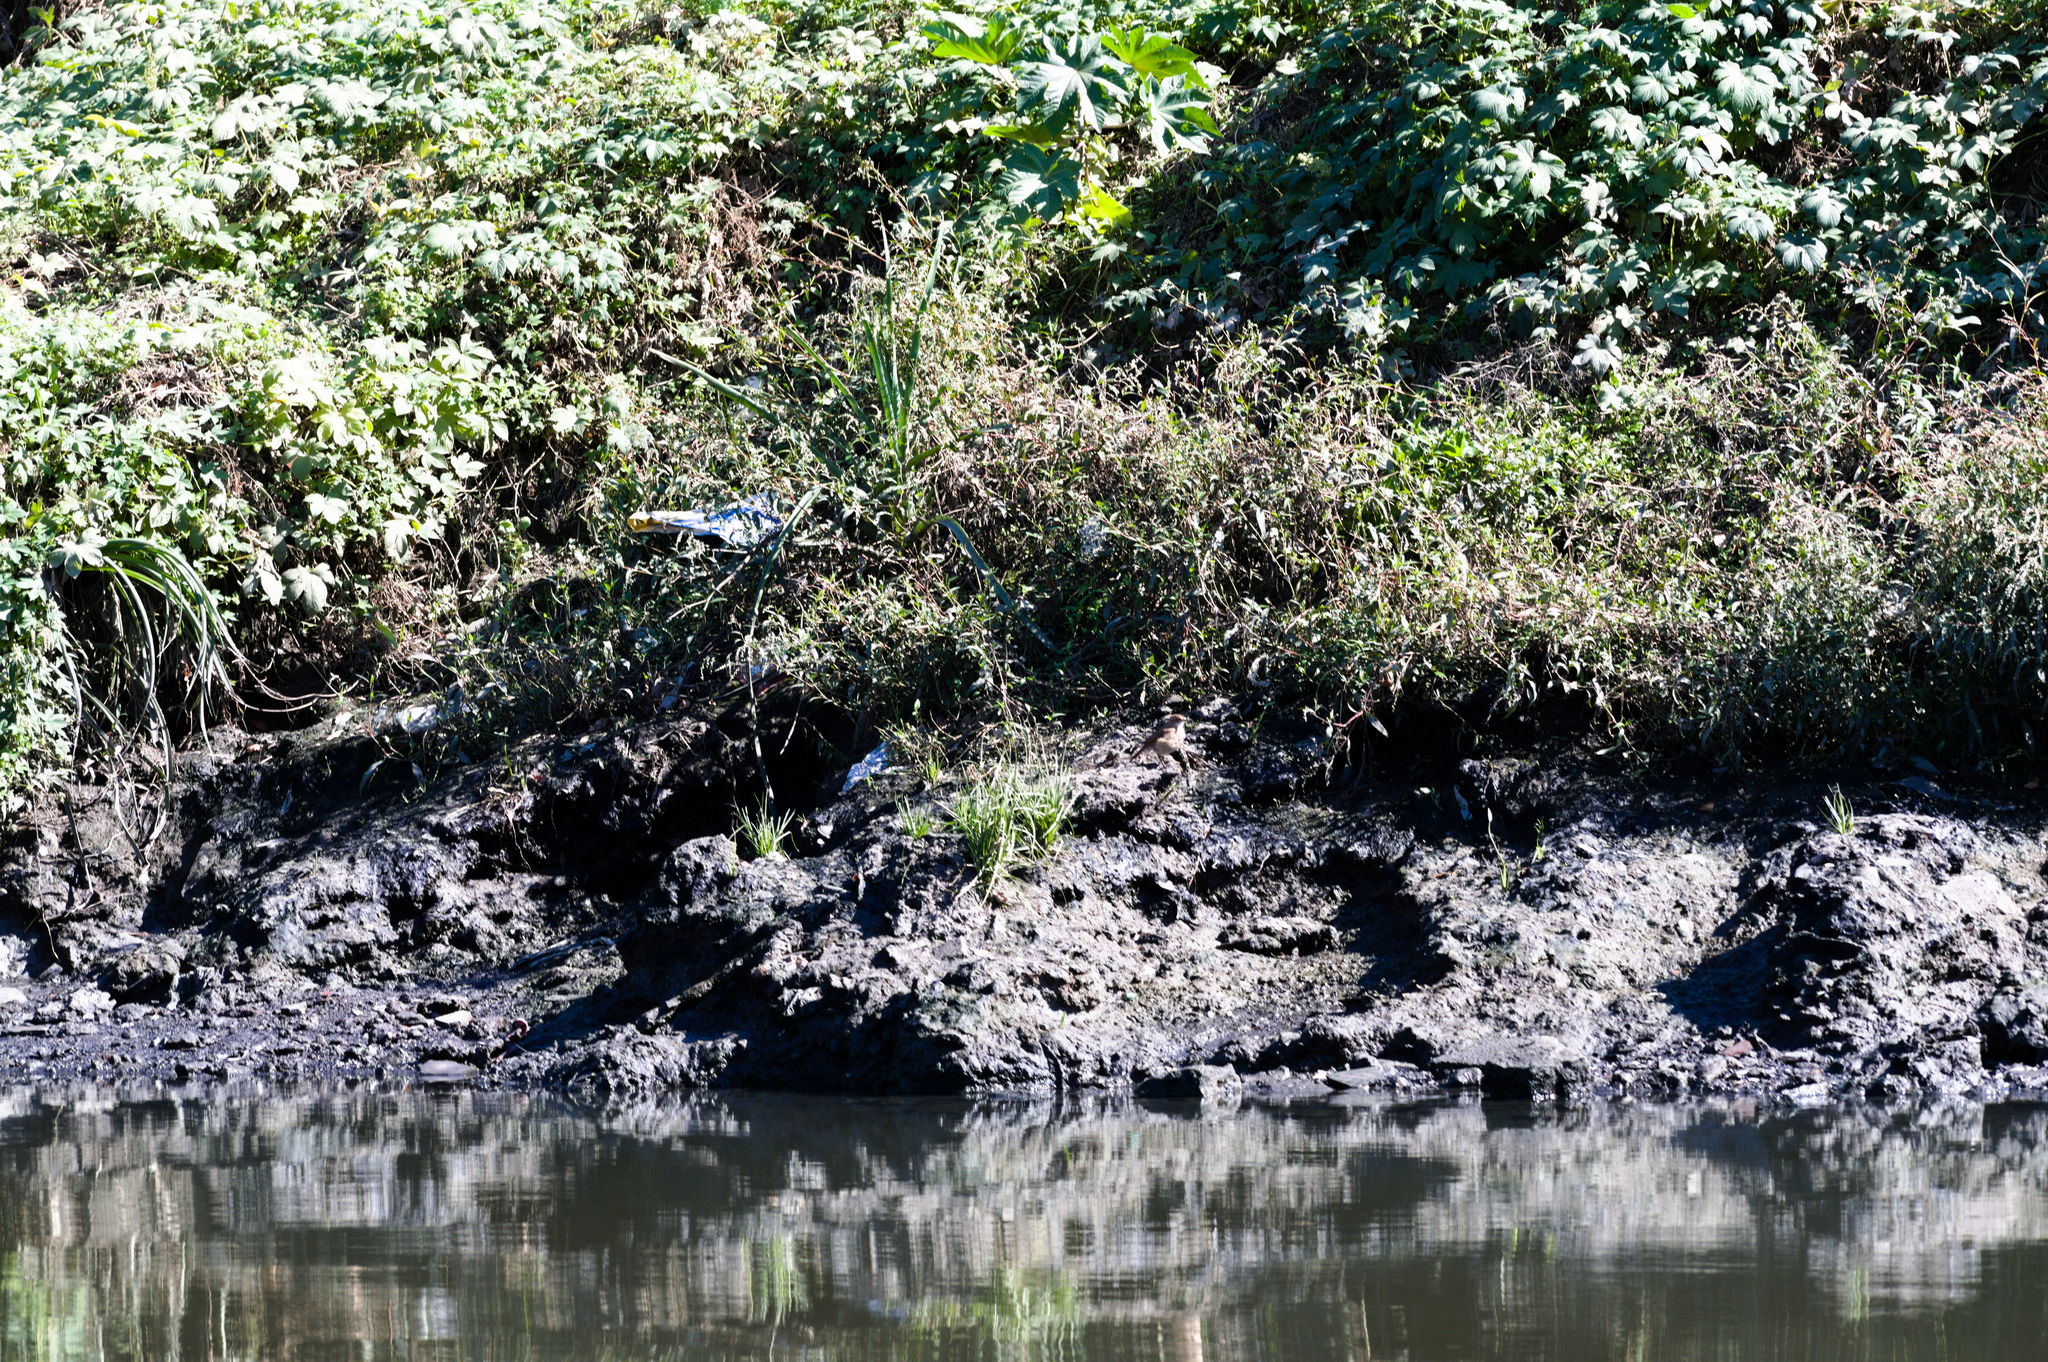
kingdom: Animalia
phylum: Chordata
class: Aves
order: Passeriformes
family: Furnariidae
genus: Furnarius
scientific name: Furnarius rufus
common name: Rufous hornero
